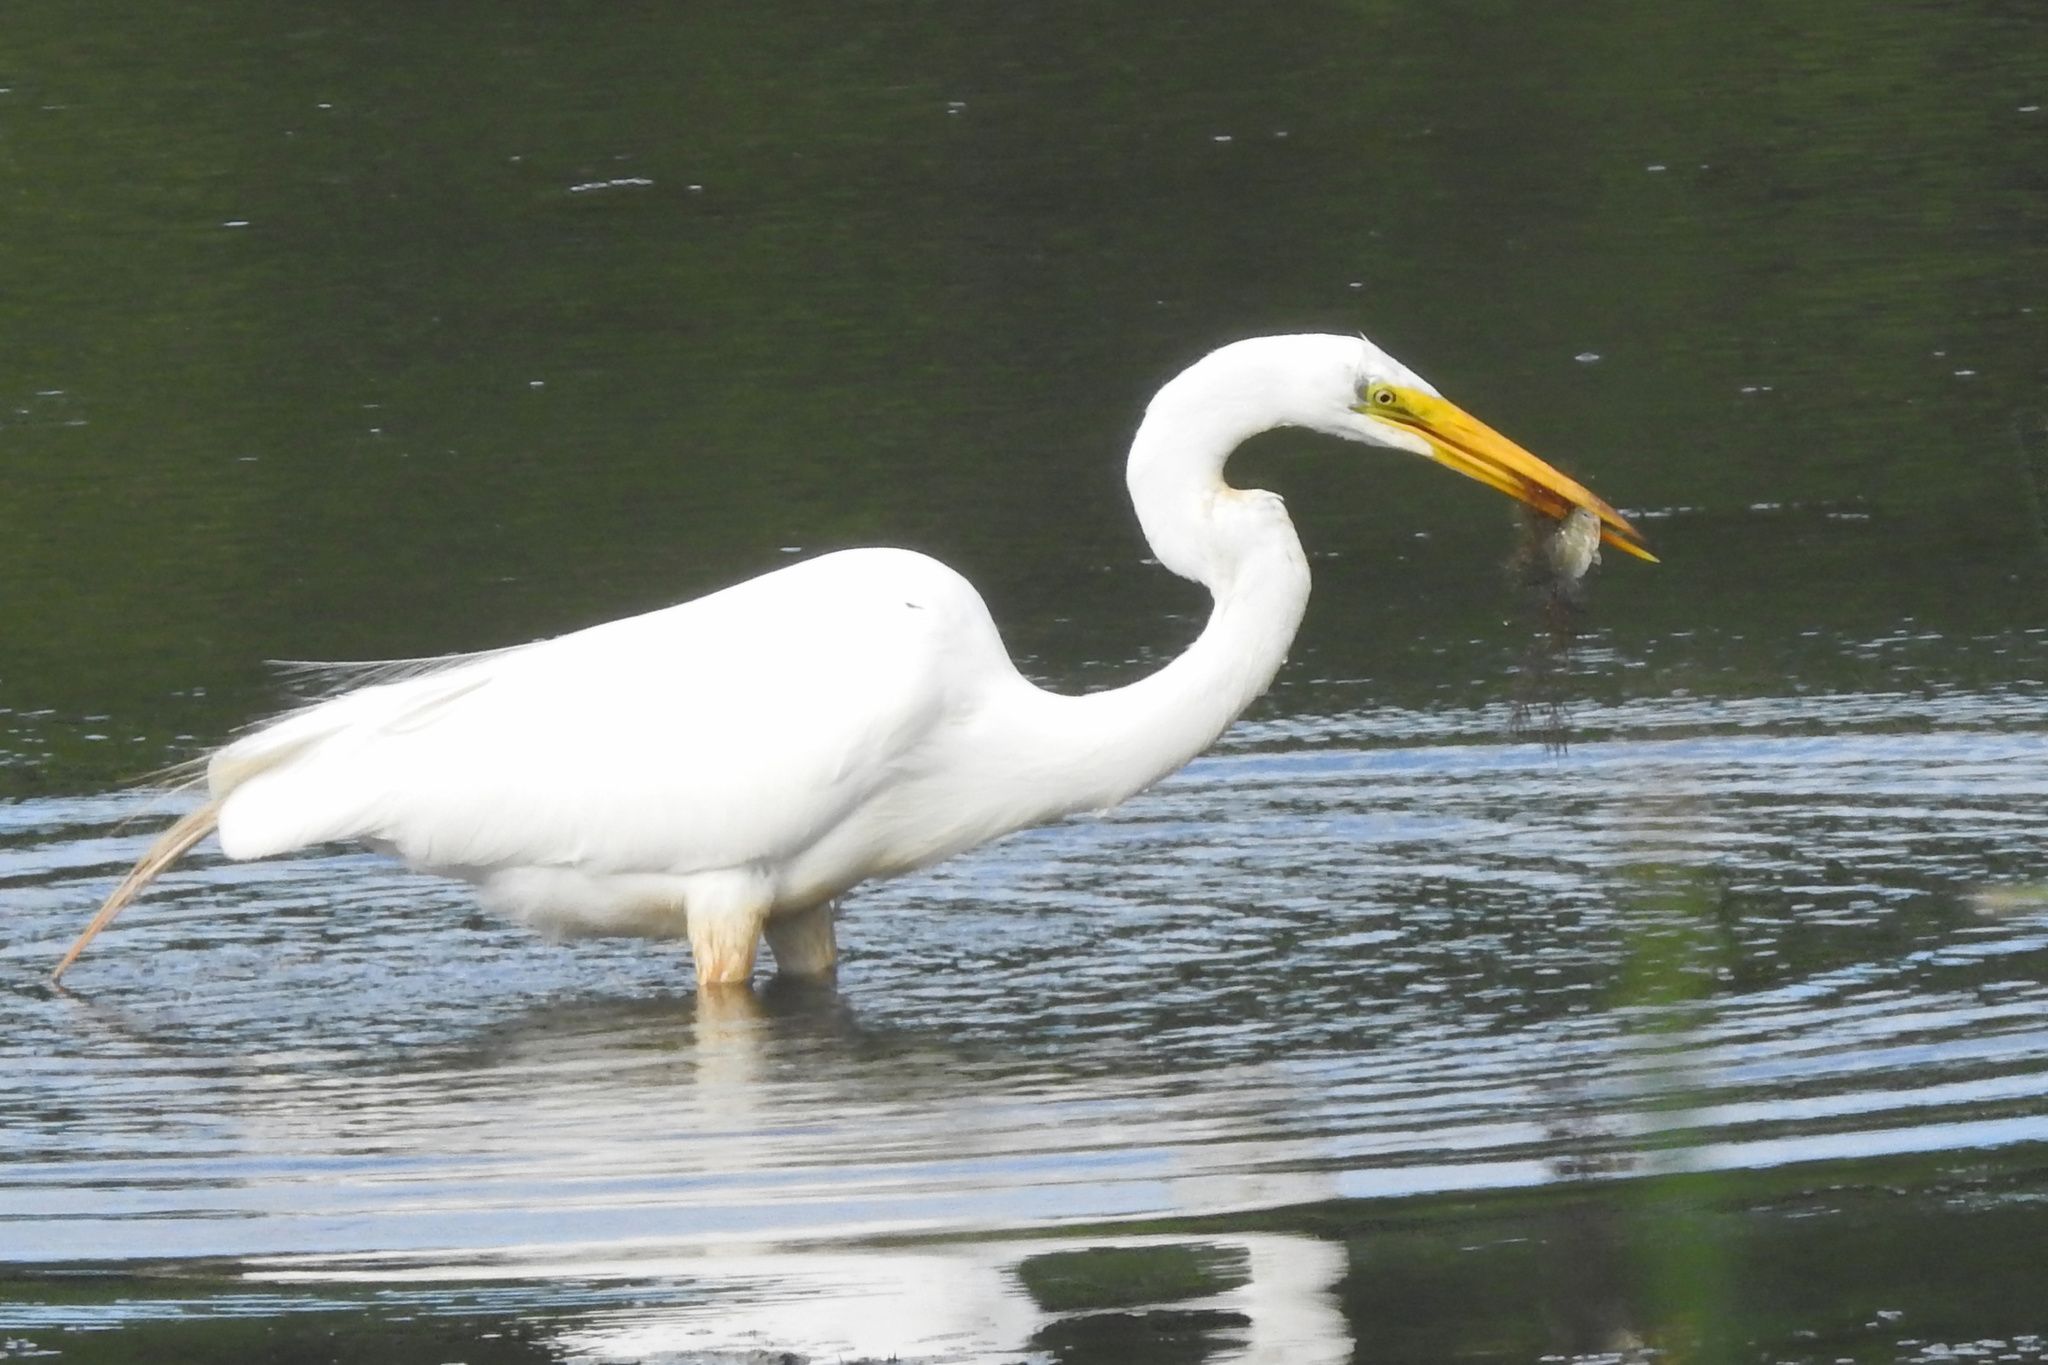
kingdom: Animalia
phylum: Chordata
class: Aves
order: Pelecaniformes
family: Ardeidae
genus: Ardea
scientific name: Ardea alba
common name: Great egret
